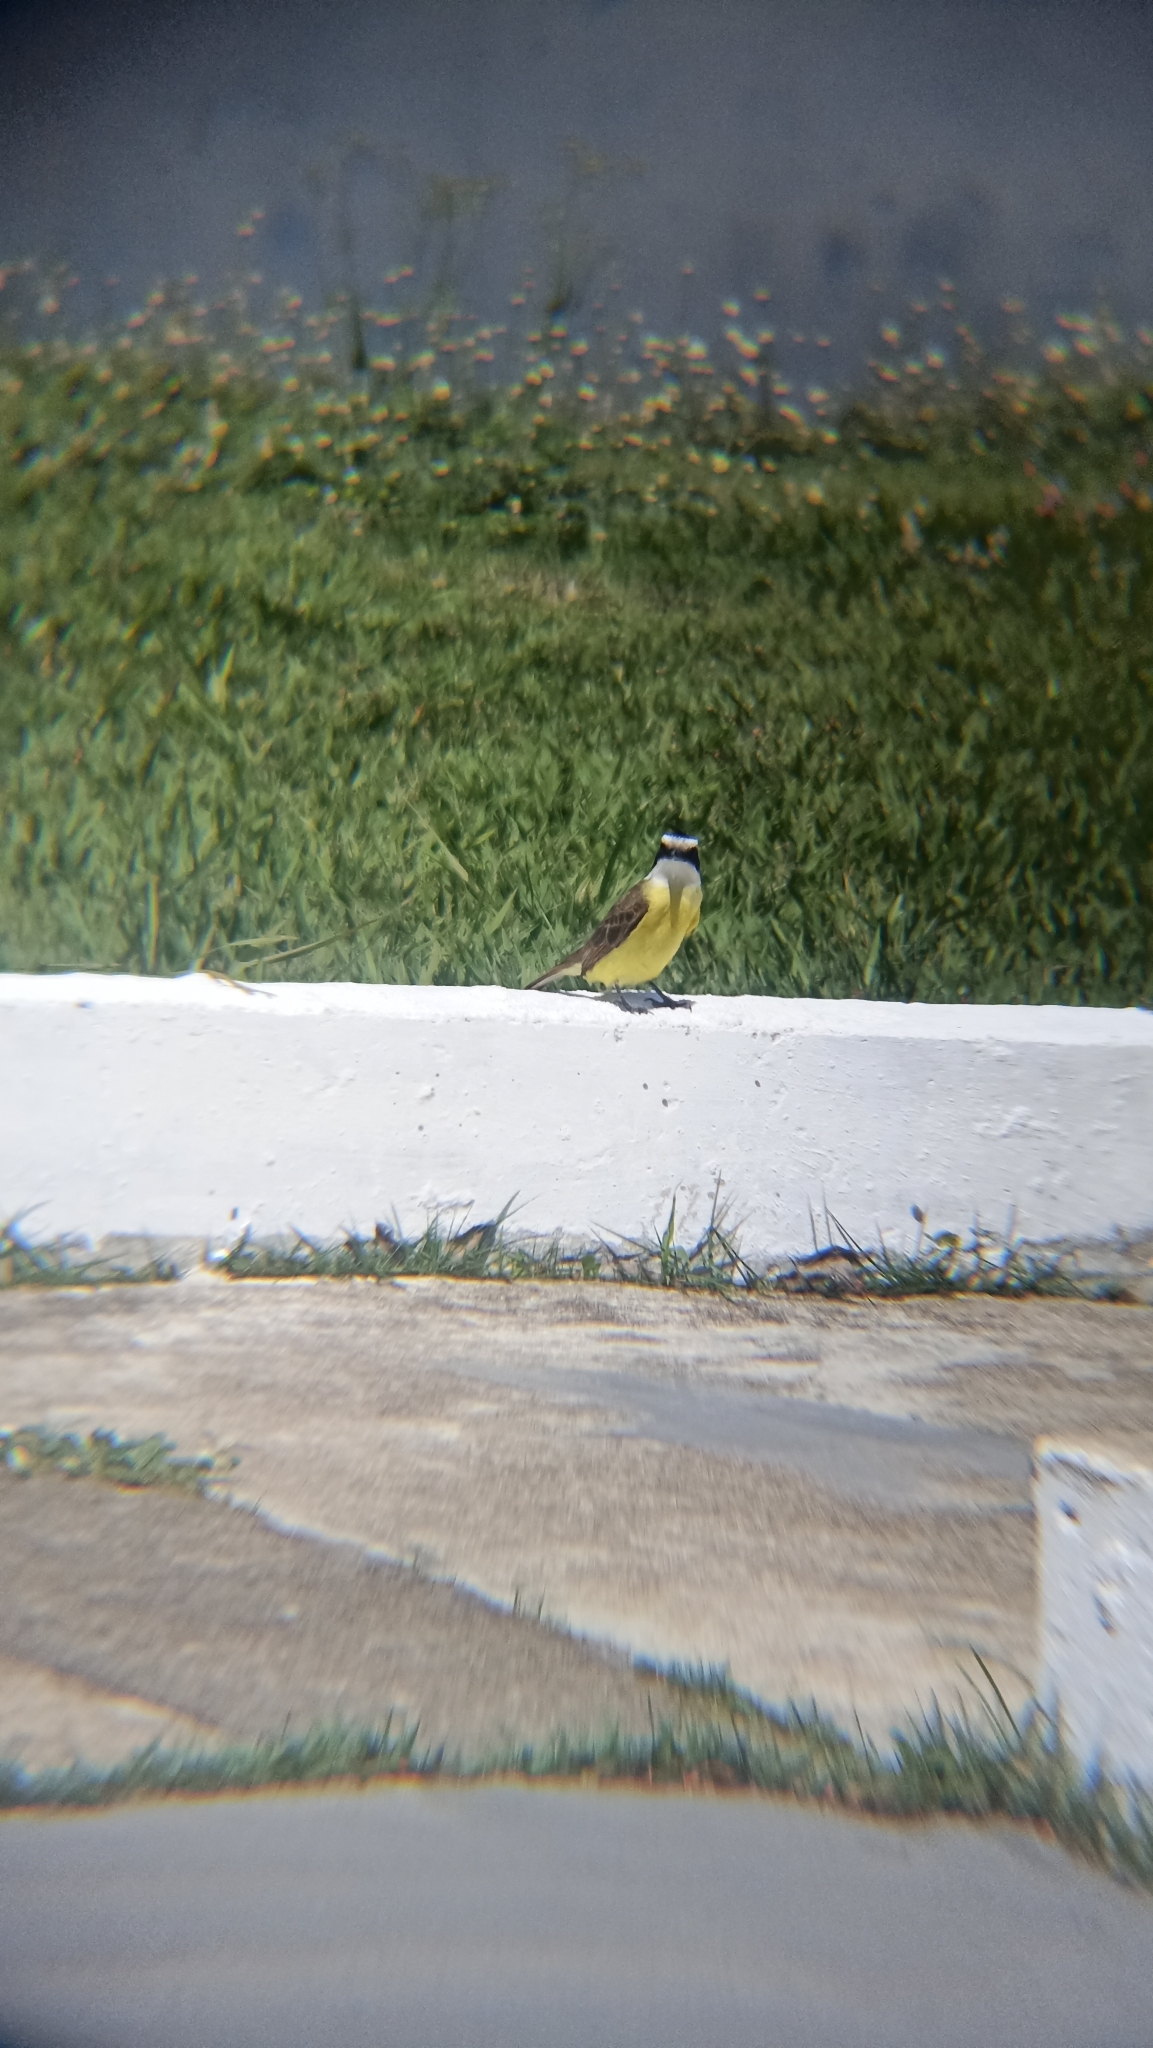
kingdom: Animalia
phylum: Chordata
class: Aves
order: Passeriformes
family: Tyrannidae
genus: Pitangus
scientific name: Pitangus sulphuratus
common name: Great kiskadee
